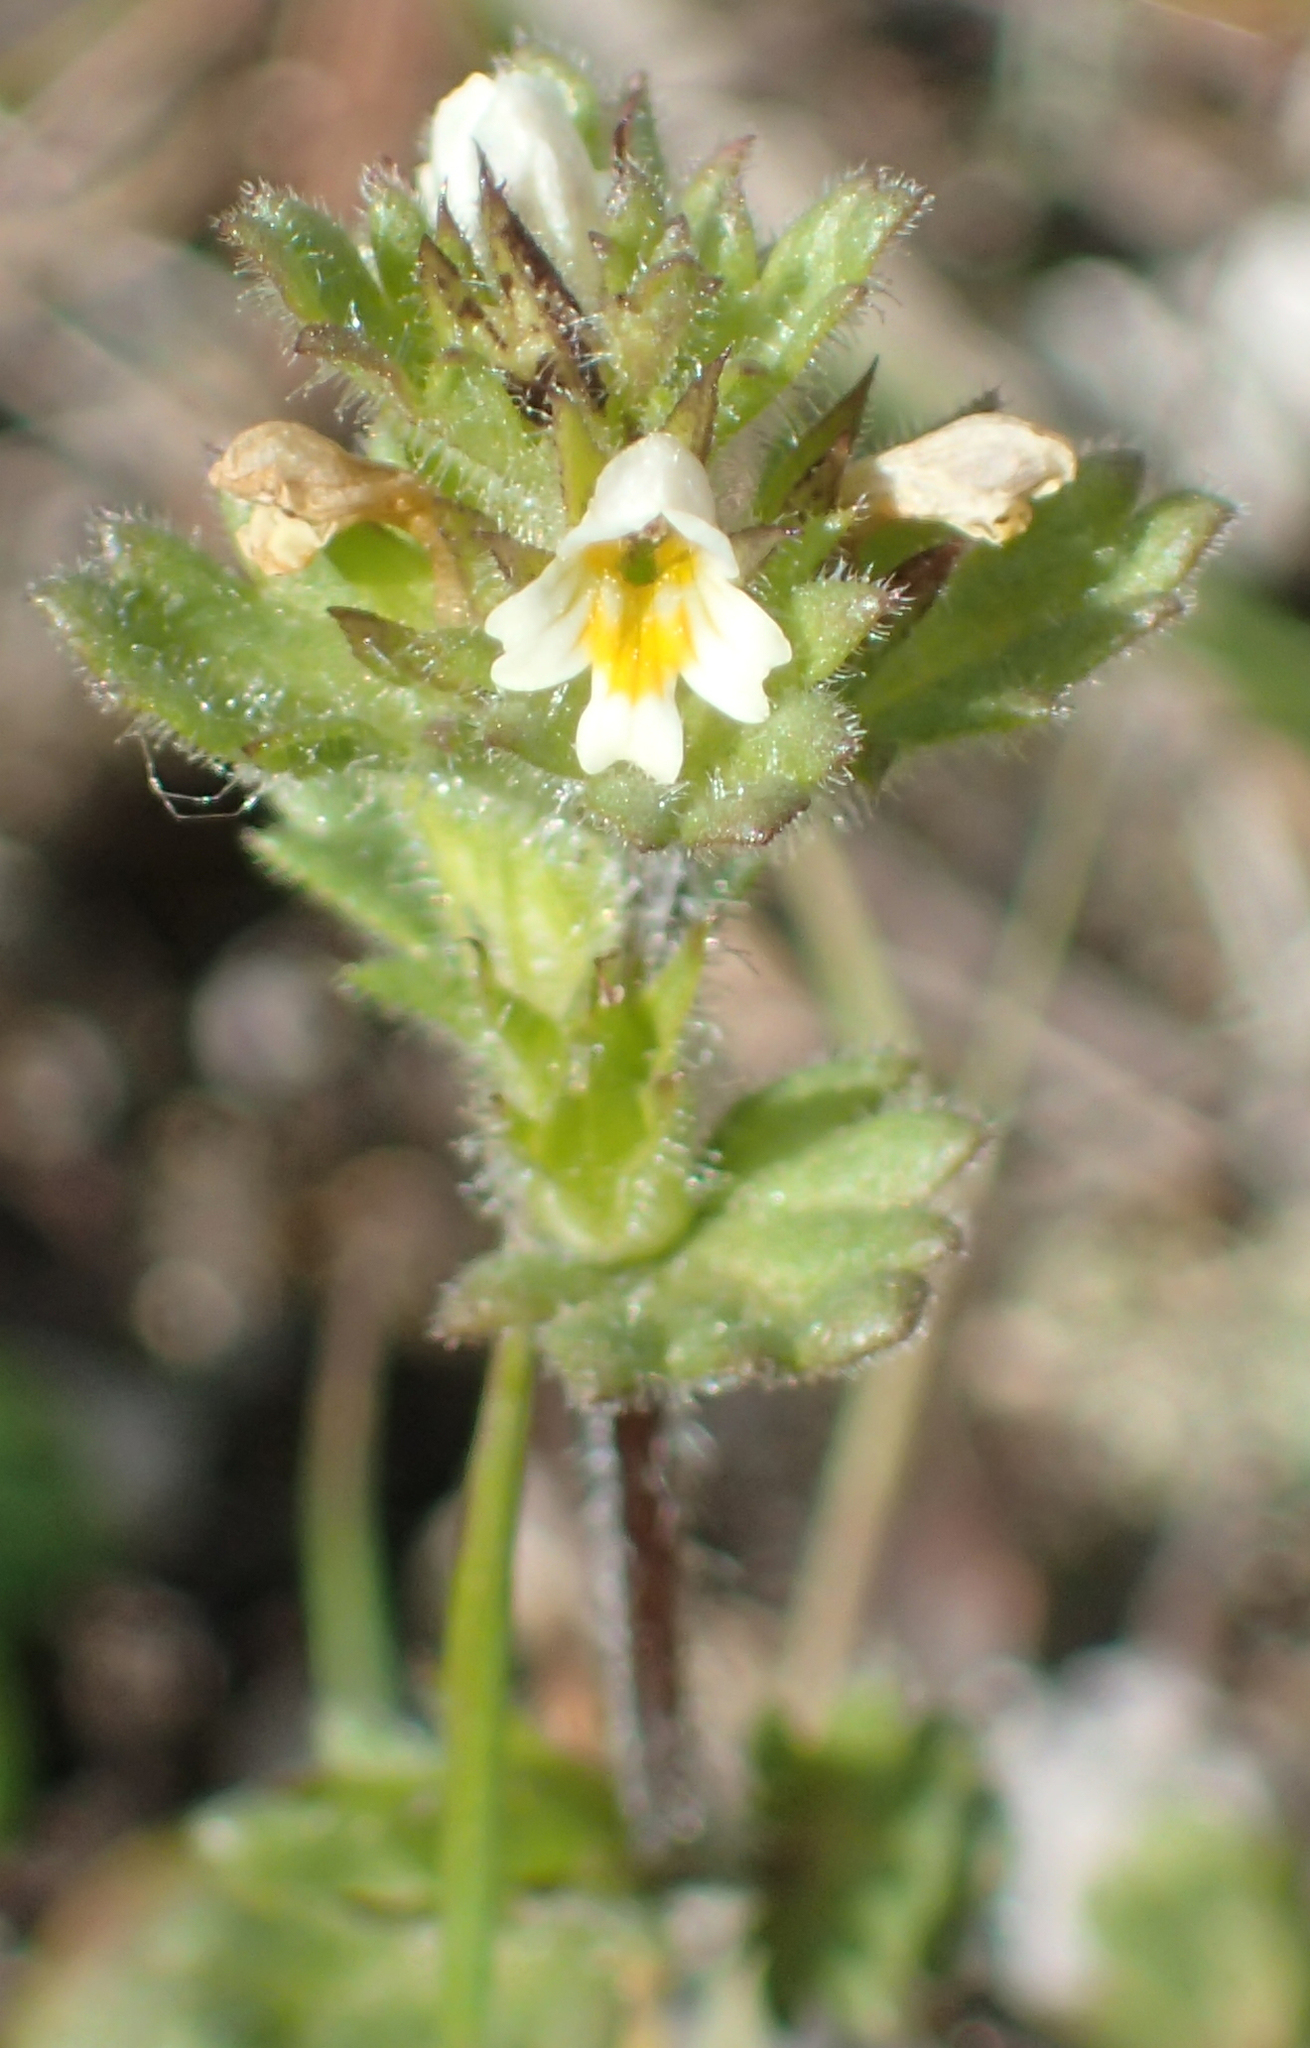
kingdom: Plantae
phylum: Tracheophyta
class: Magnoliopsida
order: Lamiales
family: Orobanchaceae
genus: Euphrasia
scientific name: Euphrasia mollis
